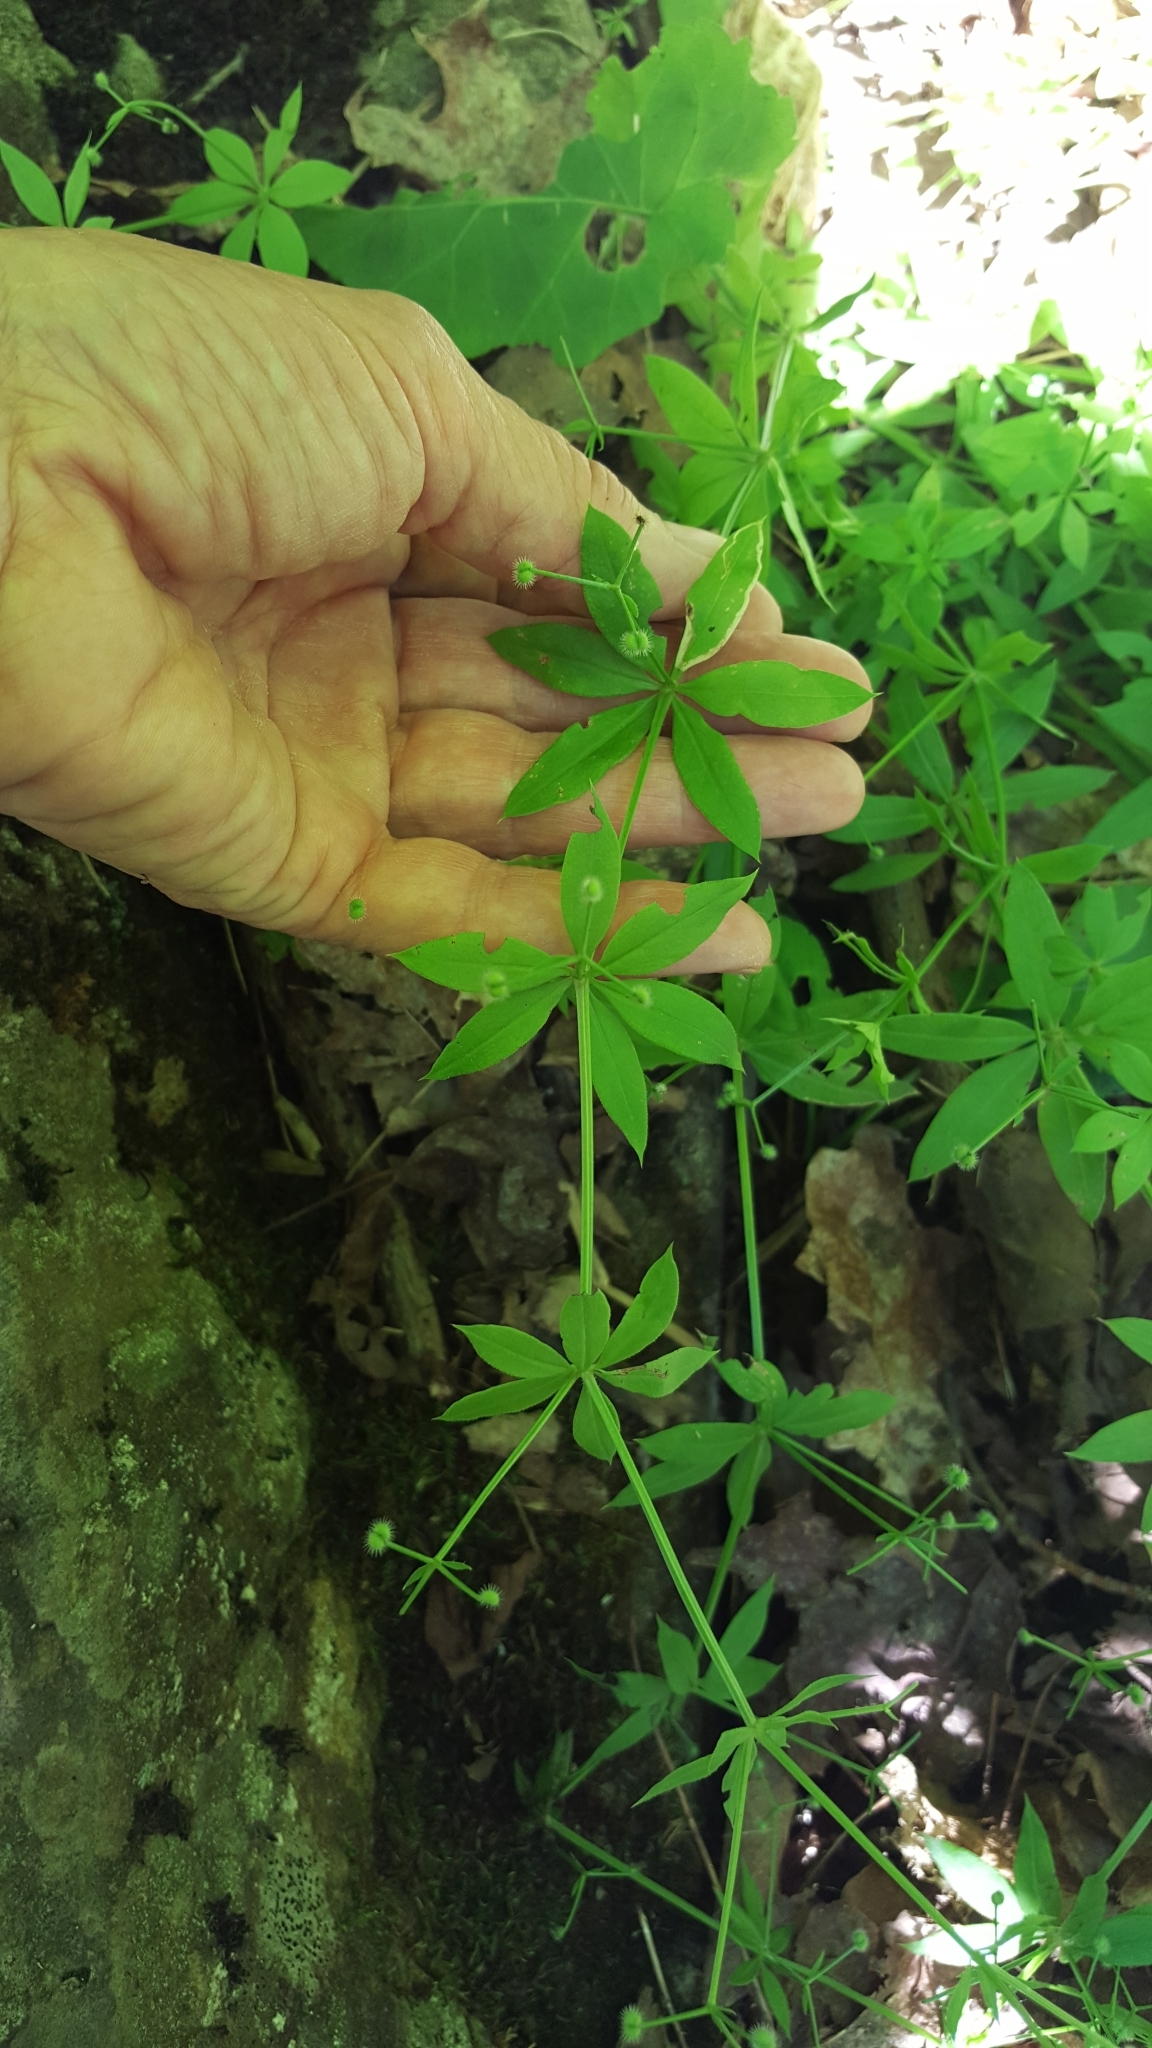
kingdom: Plantae
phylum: Tracheophyta
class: Magnoliopsida
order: Gentianales
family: Rubiaceae
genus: Galium
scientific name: Galium triflorum
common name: Fragrant bedstraw
